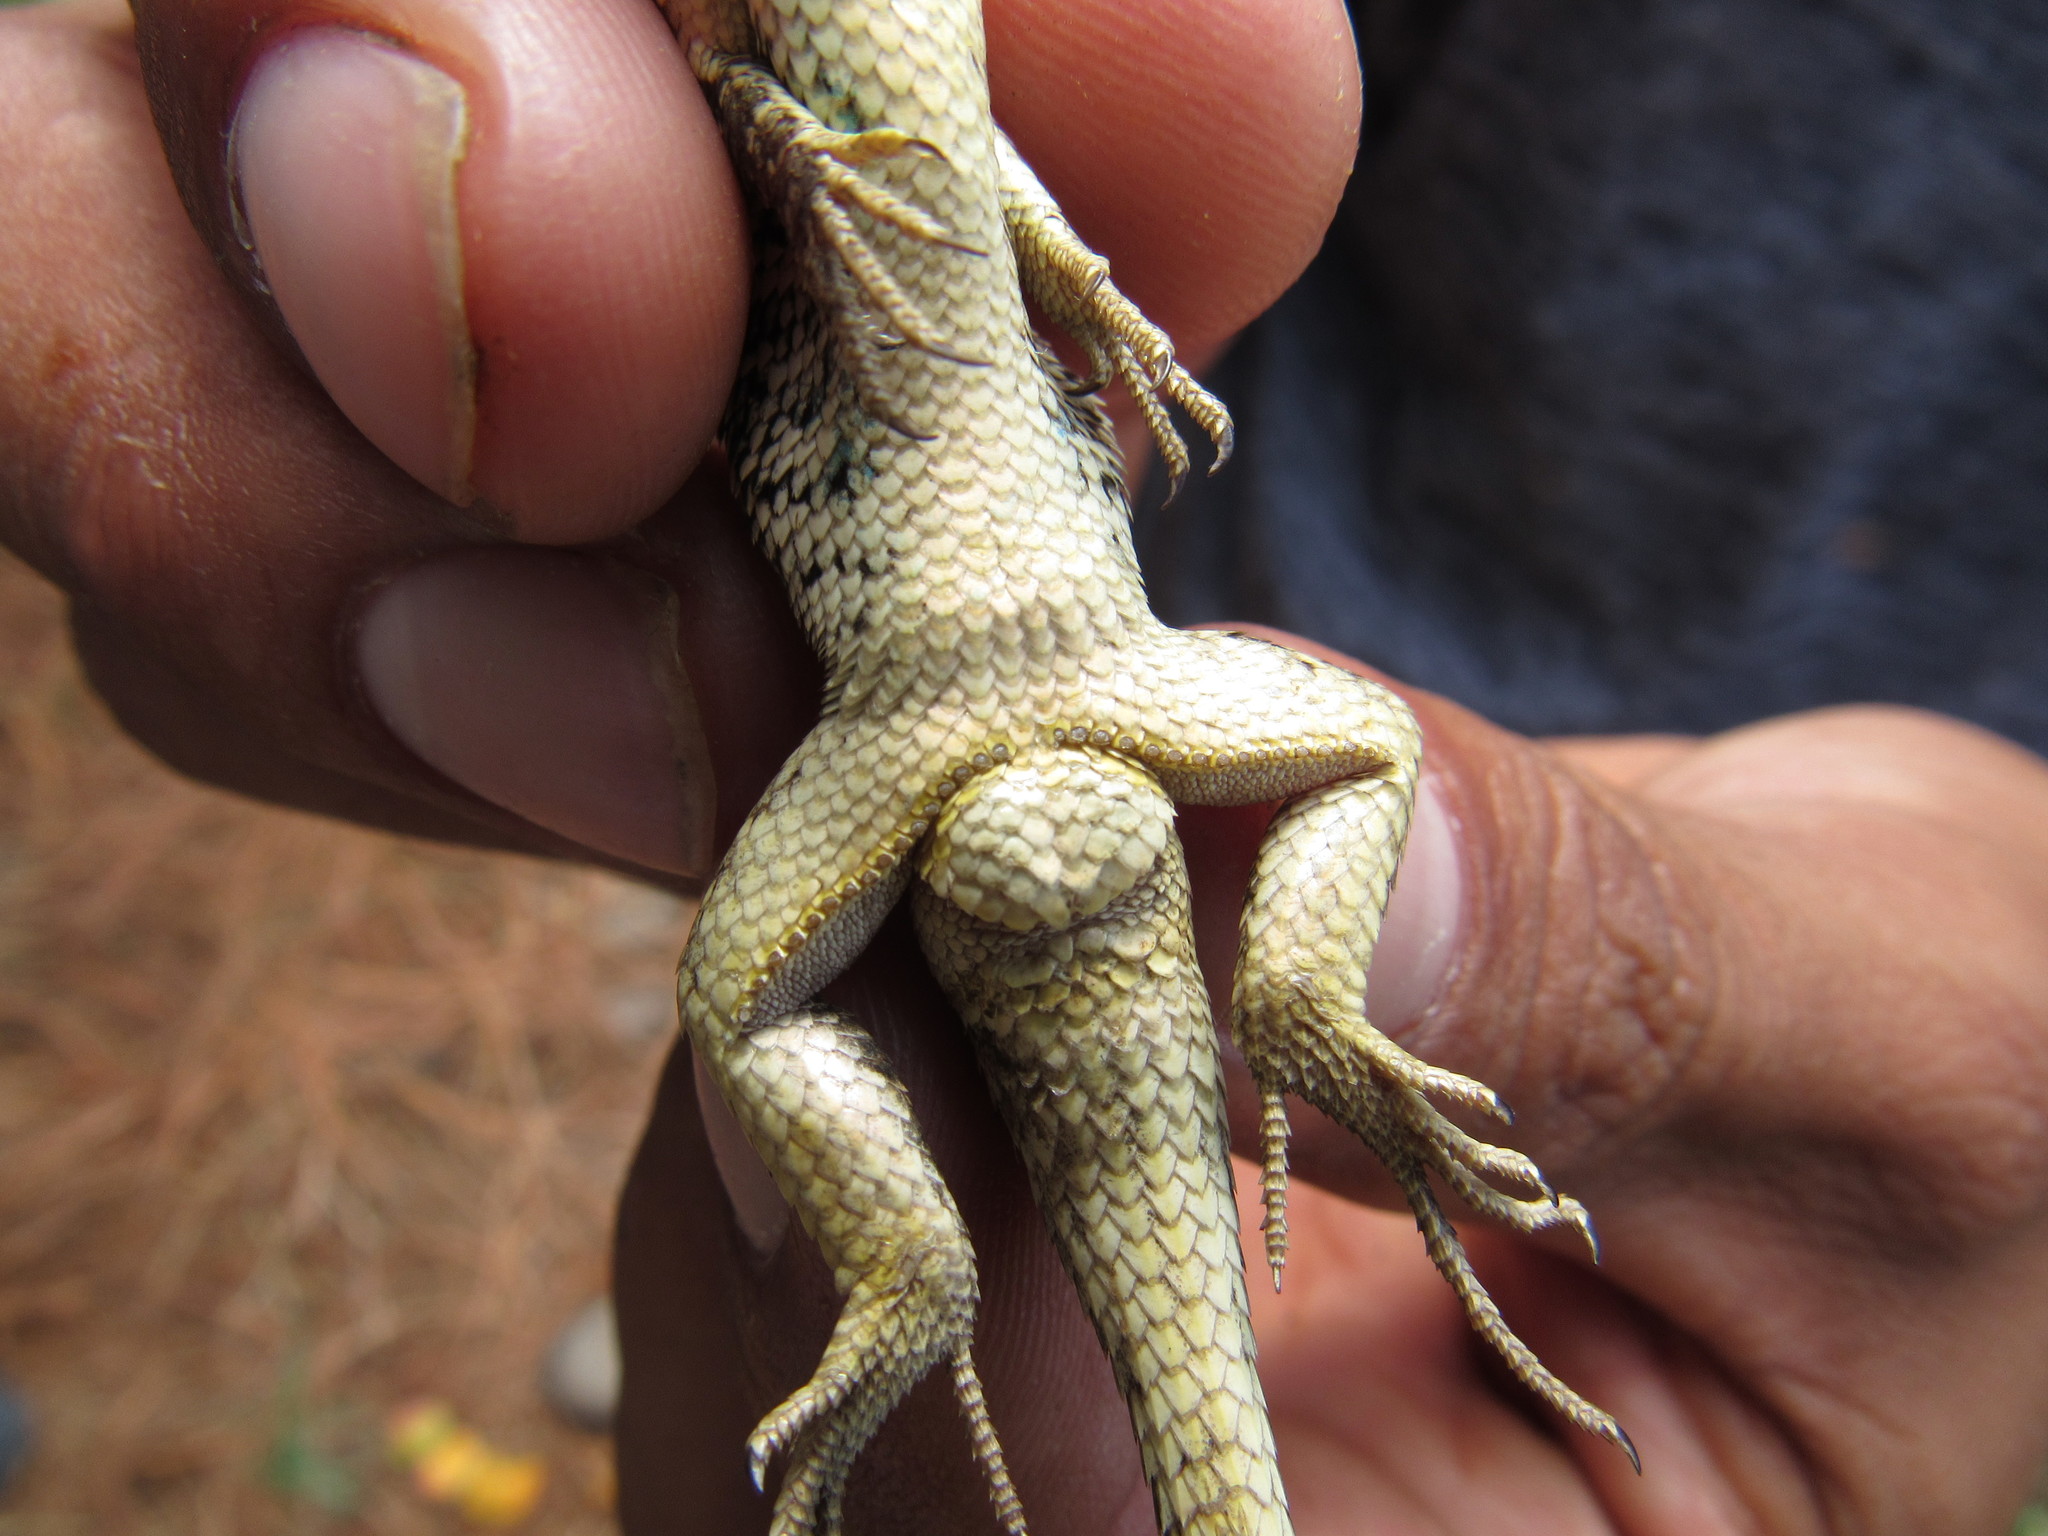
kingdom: Animalia
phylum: Chordata
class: Squamata
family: Phrynosomatidae
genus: Sceloporus
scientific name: Sceloporus subniger
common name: Plateau bunchgrass lizard
